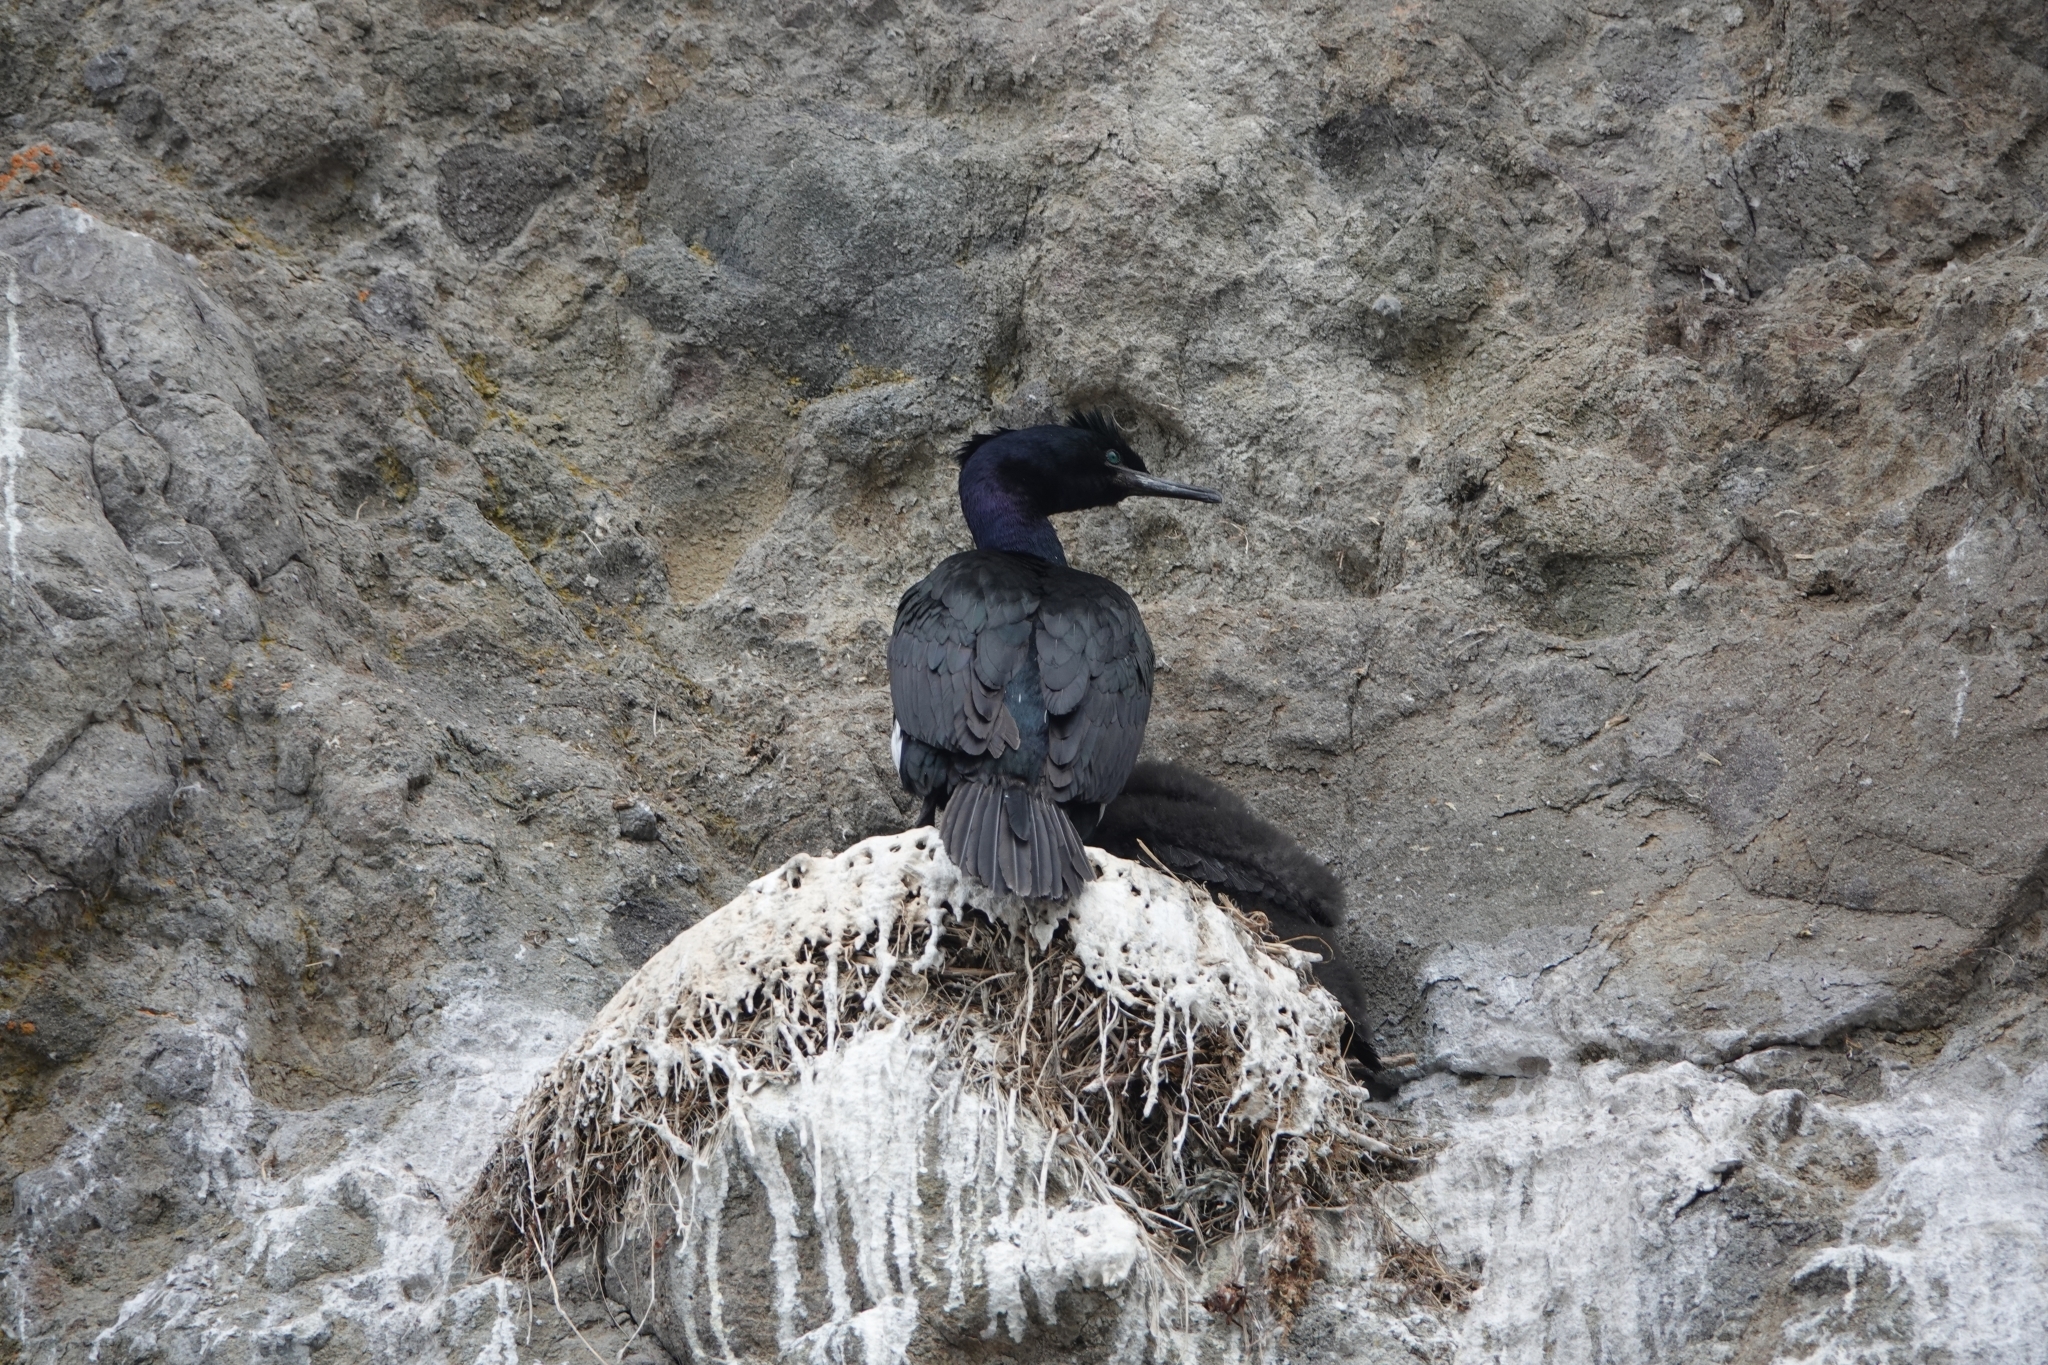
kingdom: Animalia
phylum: Chordata
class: Aves
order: Suliformes
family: Phalacrocoracidae
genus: Phalacrocorax
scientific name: Phalacrocorax pelagicus
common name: Pelagic cormorant
